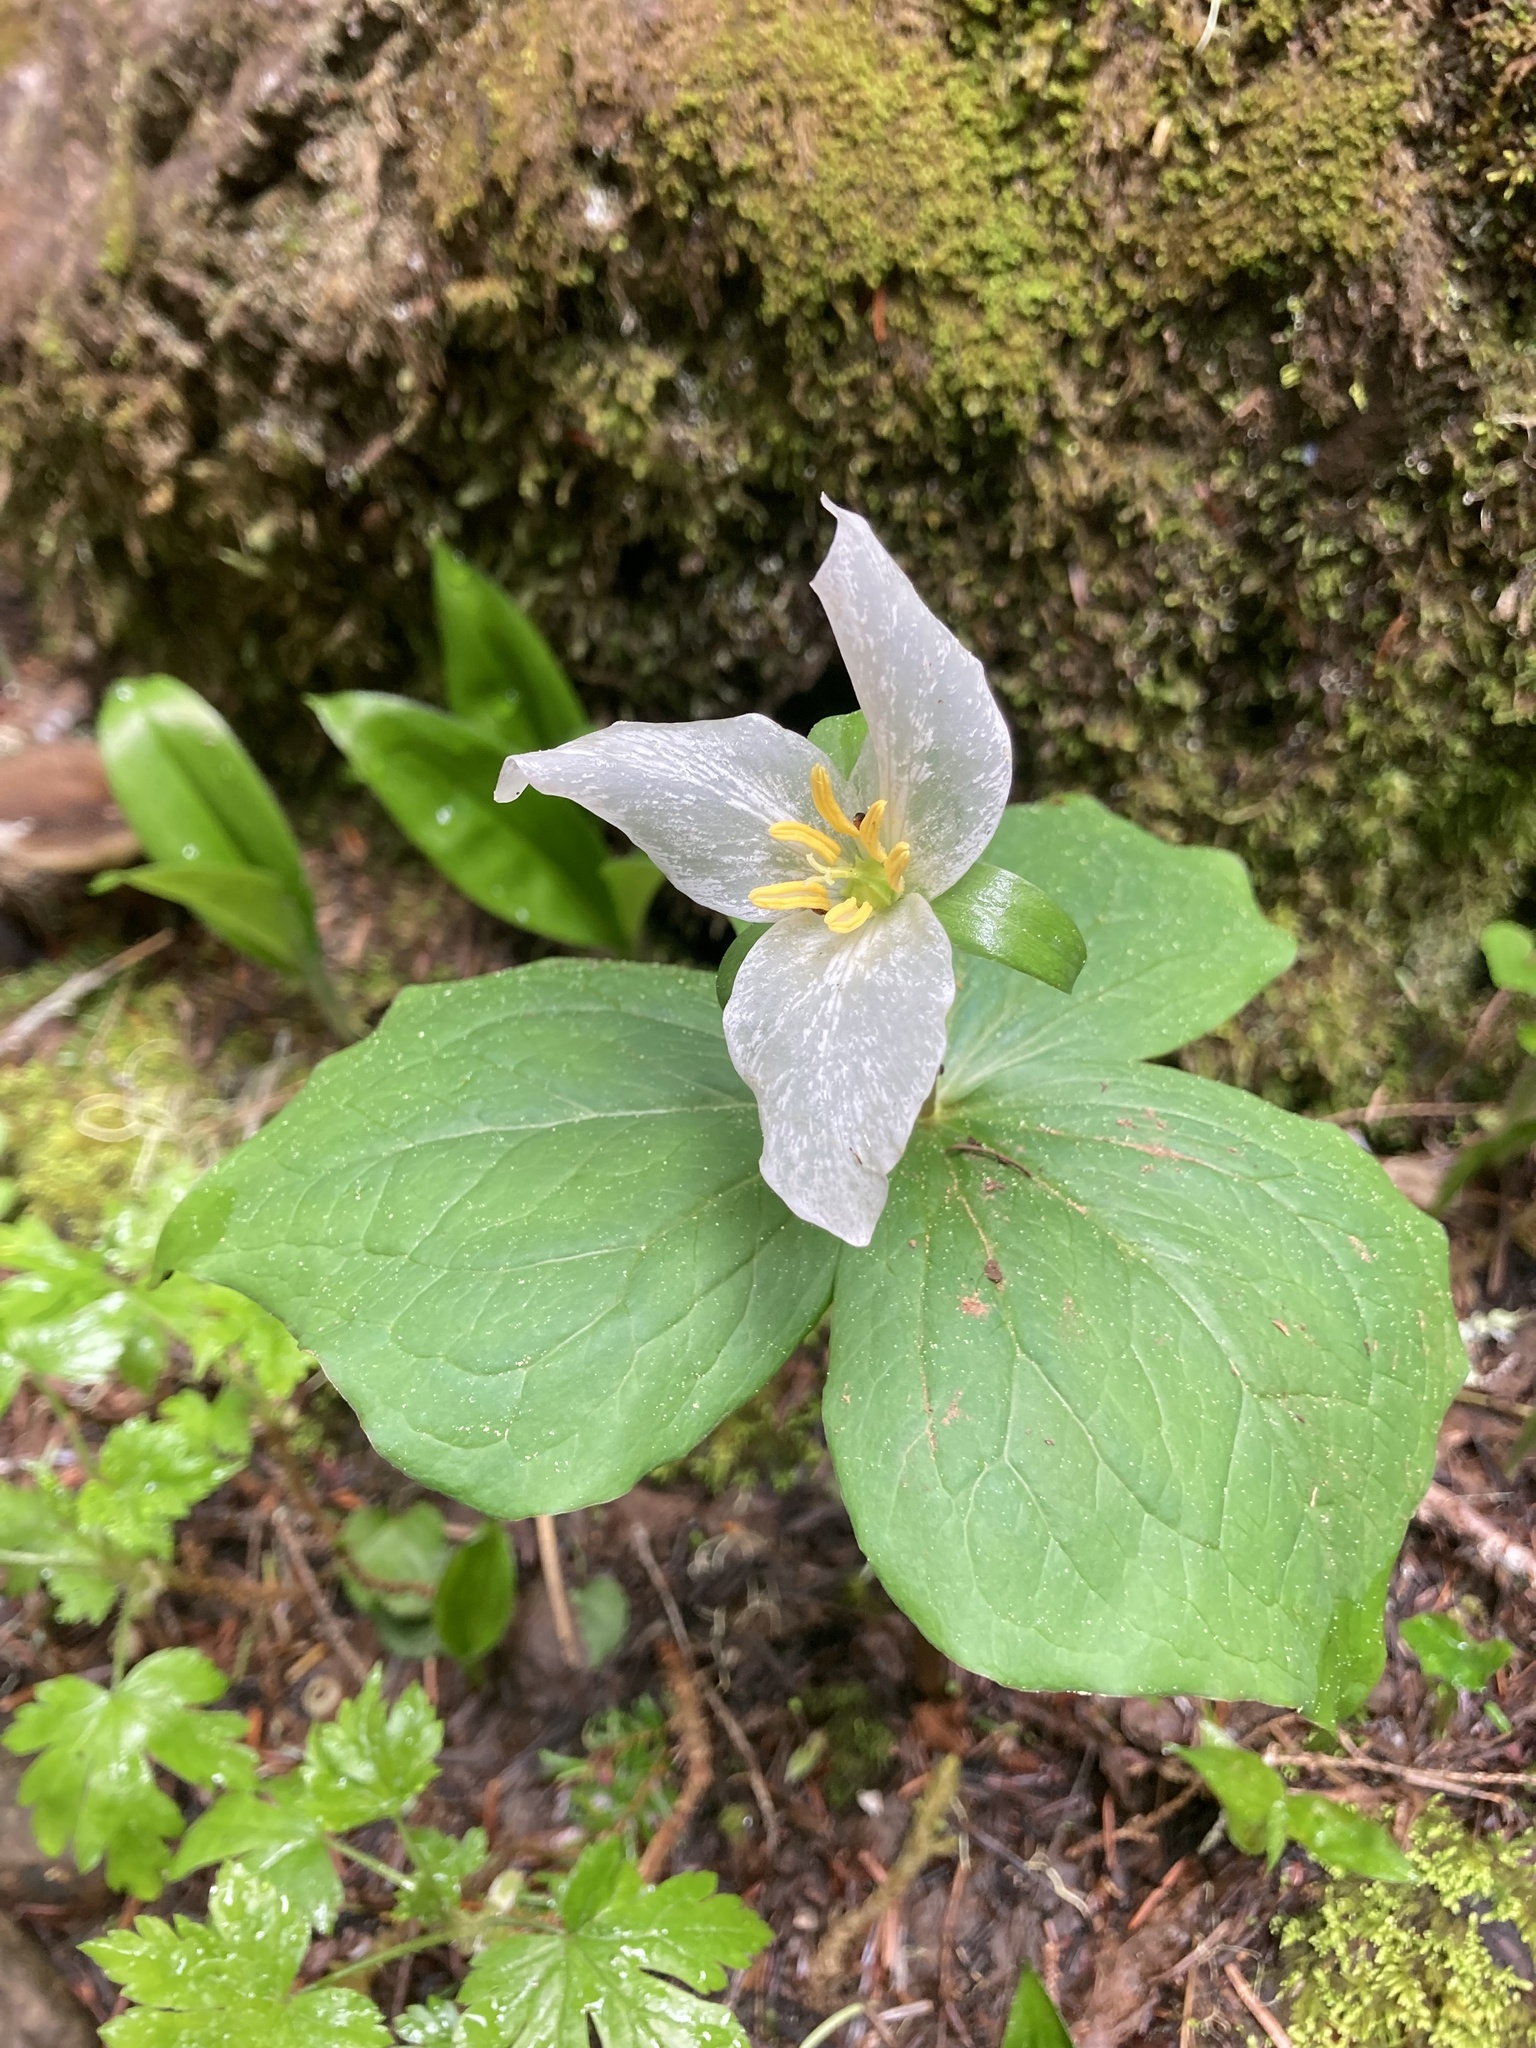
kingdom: Plantae
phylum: Tracheophyta
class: Liliopsida
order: Liliales
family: Melanthiaceae
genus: Trillium
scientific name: Trillium ovatum
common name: Pacific trillium
